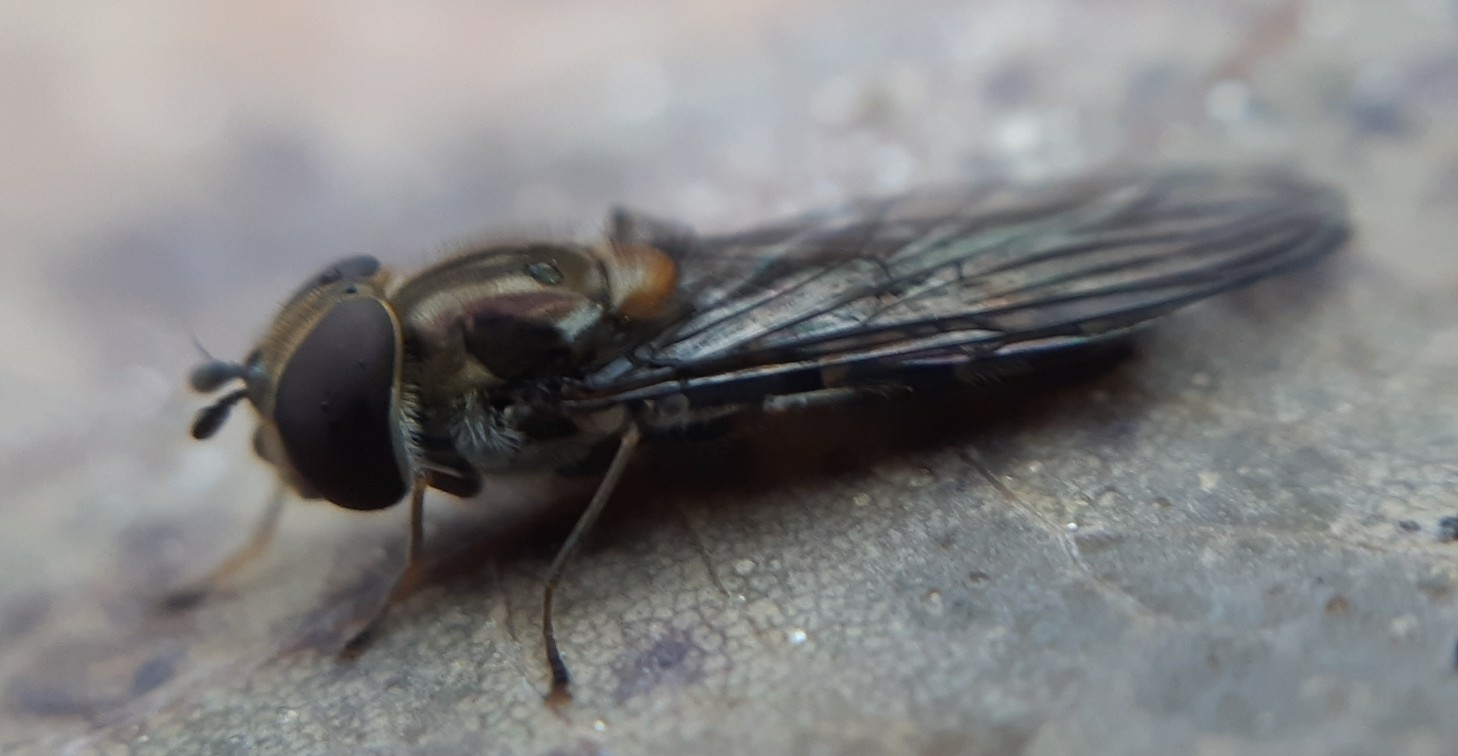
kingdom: Animalia
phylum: Arthropoda
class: Insecta
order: Diptera
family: Syrphidae
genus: Episyrphus
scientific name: Episyrphus balteatus
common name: Marmalade hoverfly
